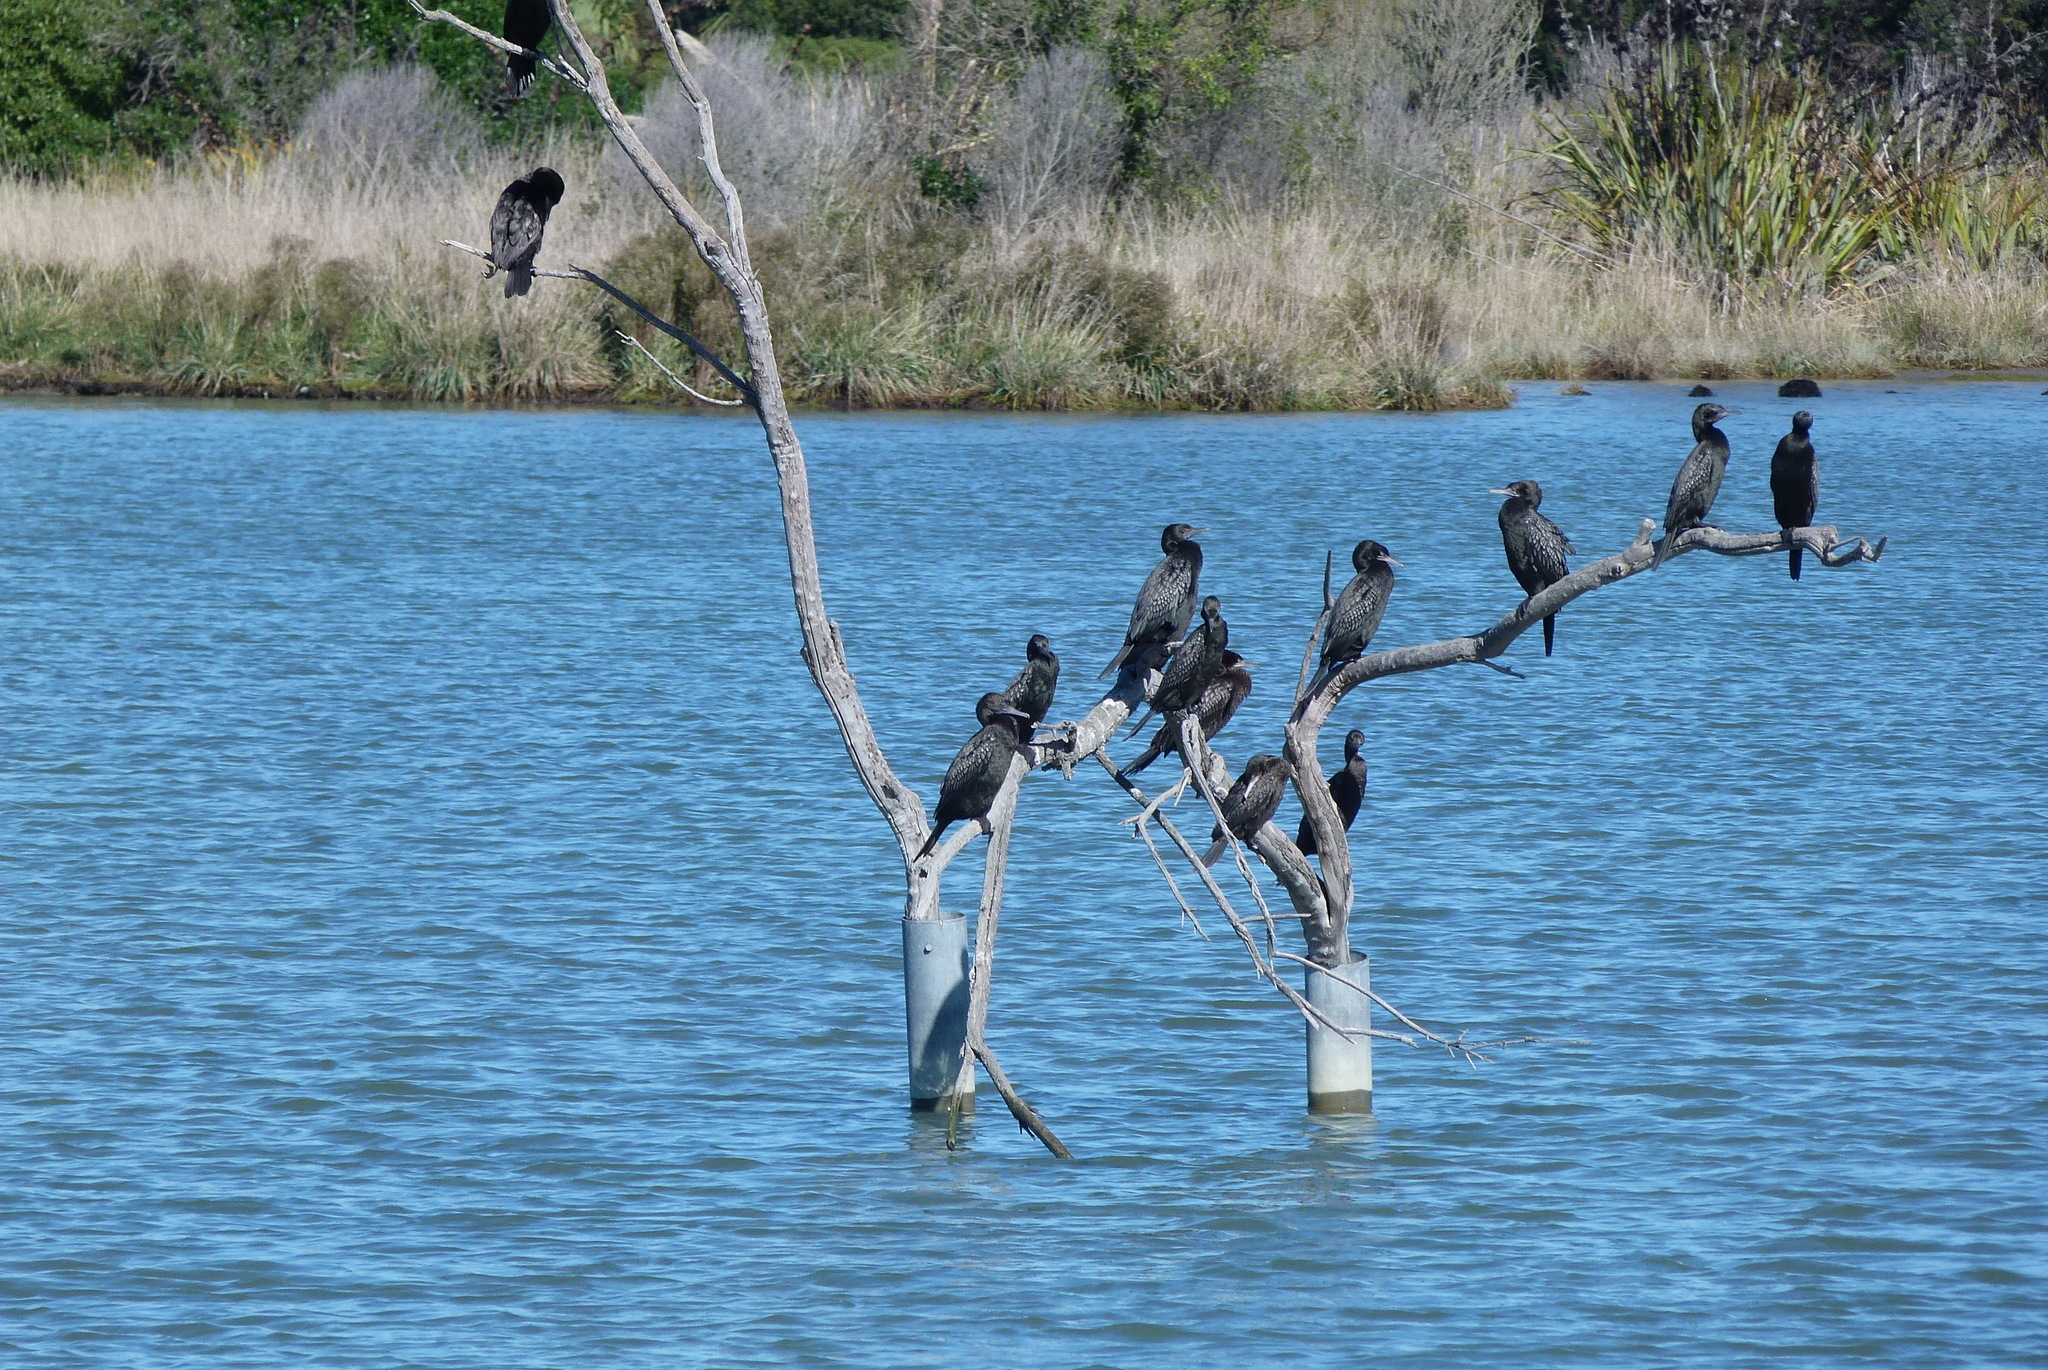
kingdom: Animalia
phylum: Chordata
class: Aves
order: Suliformes
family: Phalacrocoracidae
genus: Phalacrocorax
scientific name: Phalacrocorax sulcirostris
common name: Little black cormorant
